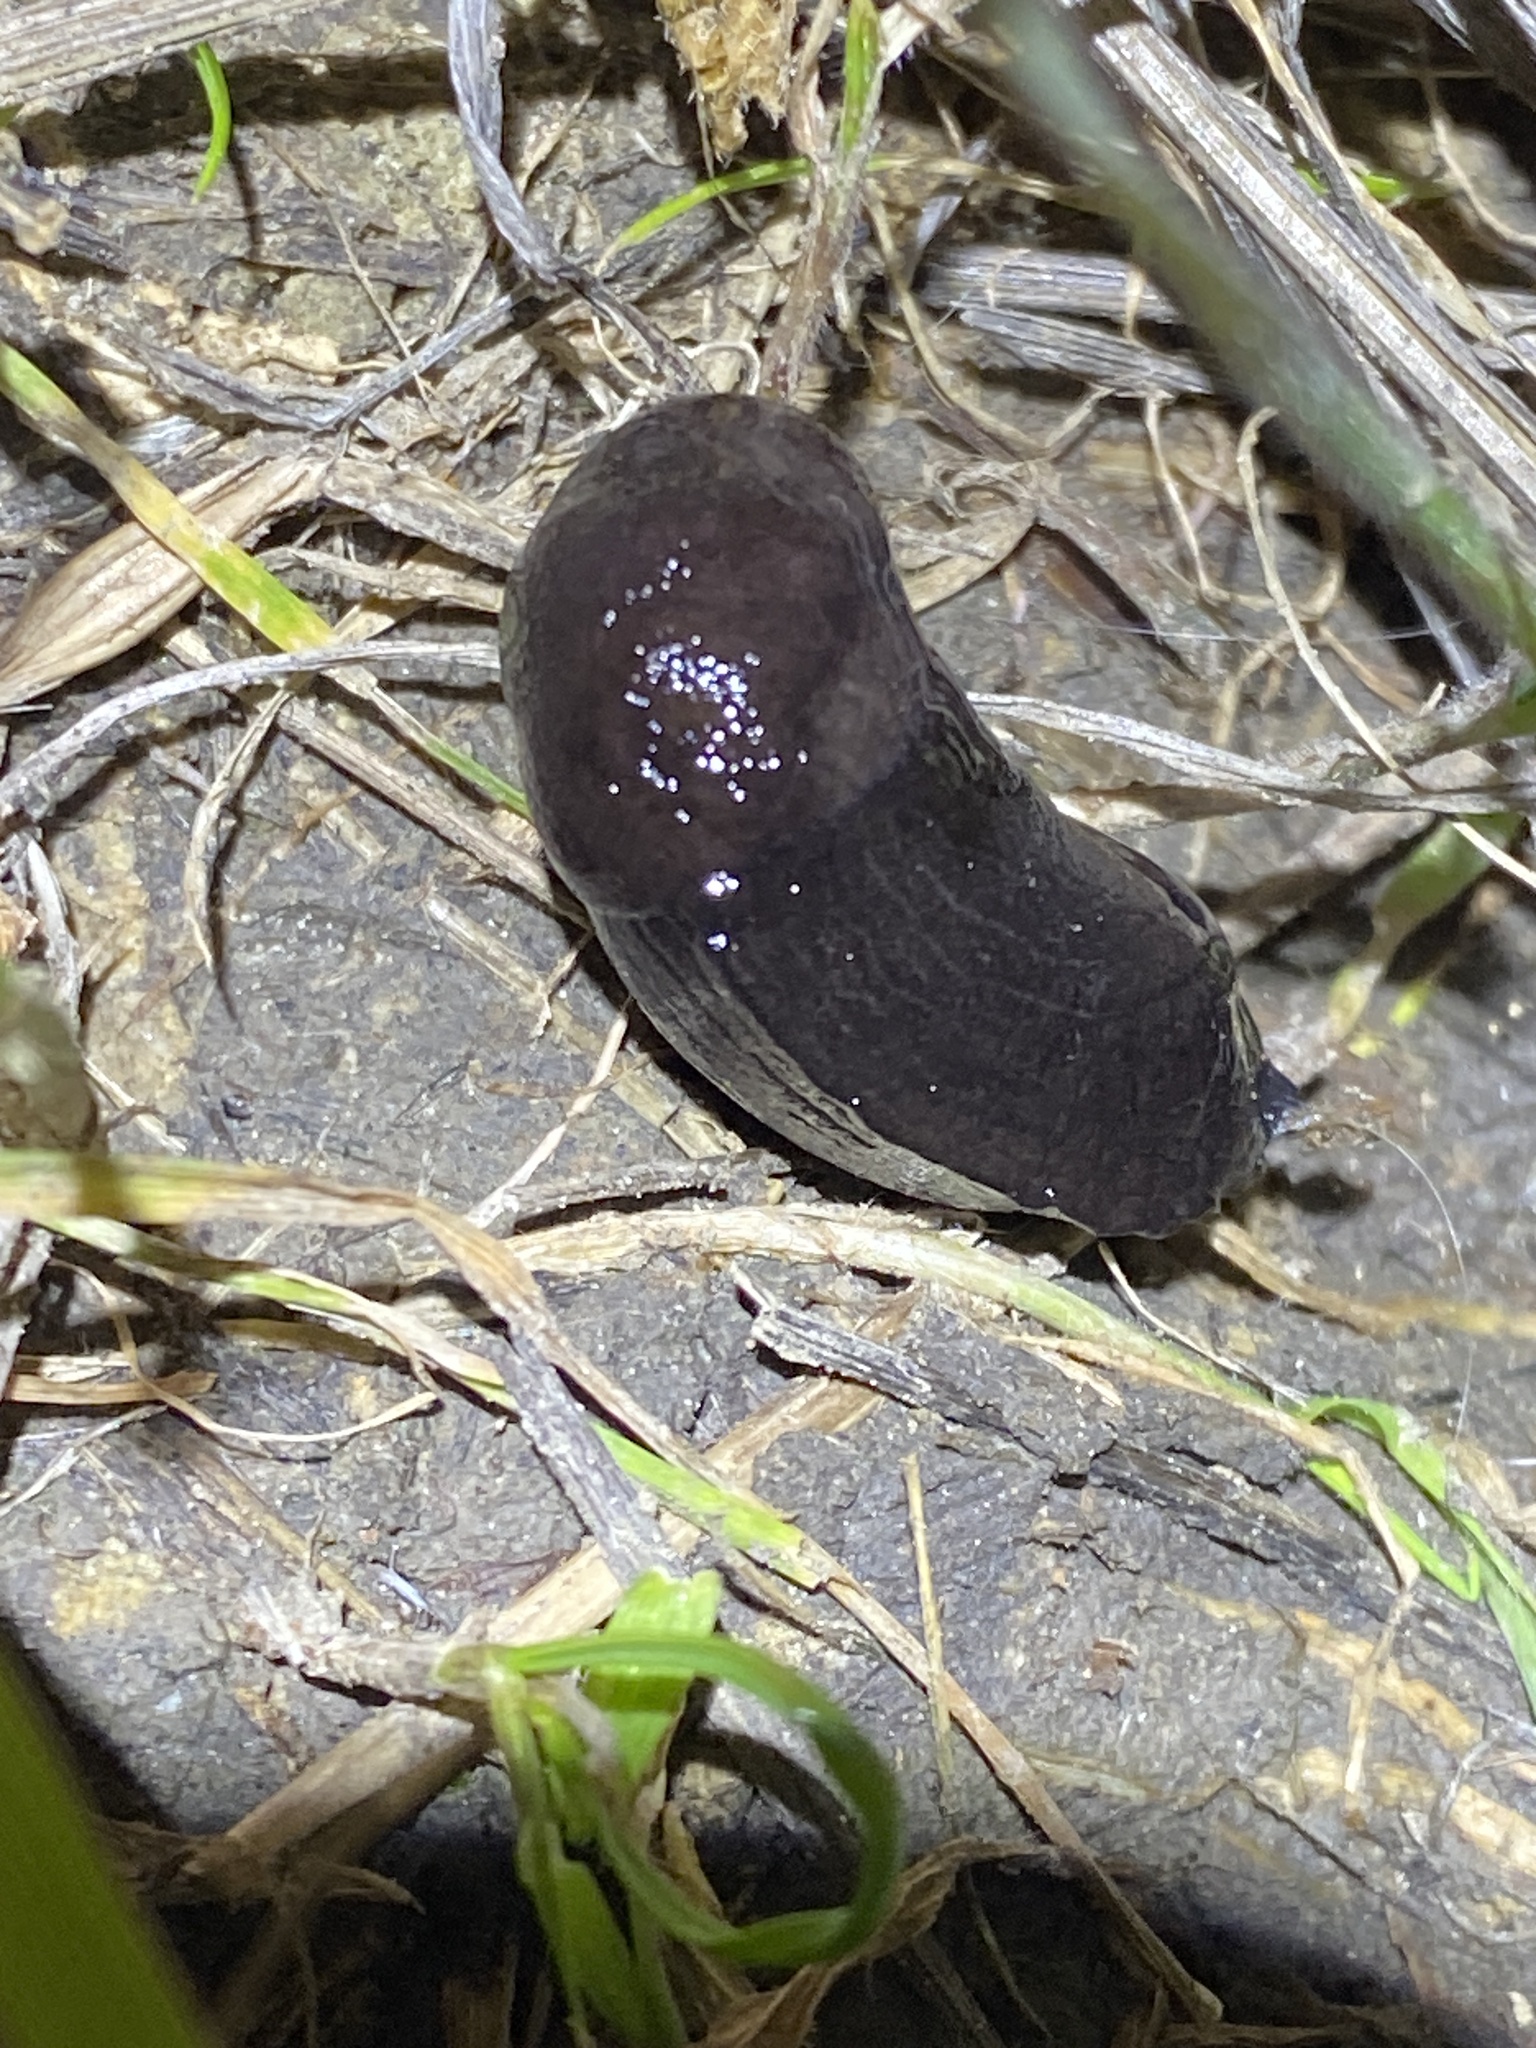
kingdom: Animalia
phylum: Mollusca
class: Gastropoda
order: Stylommatophora
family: Milacidae
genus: Milax
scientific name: Milax gagates
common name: Greenhouse slug
